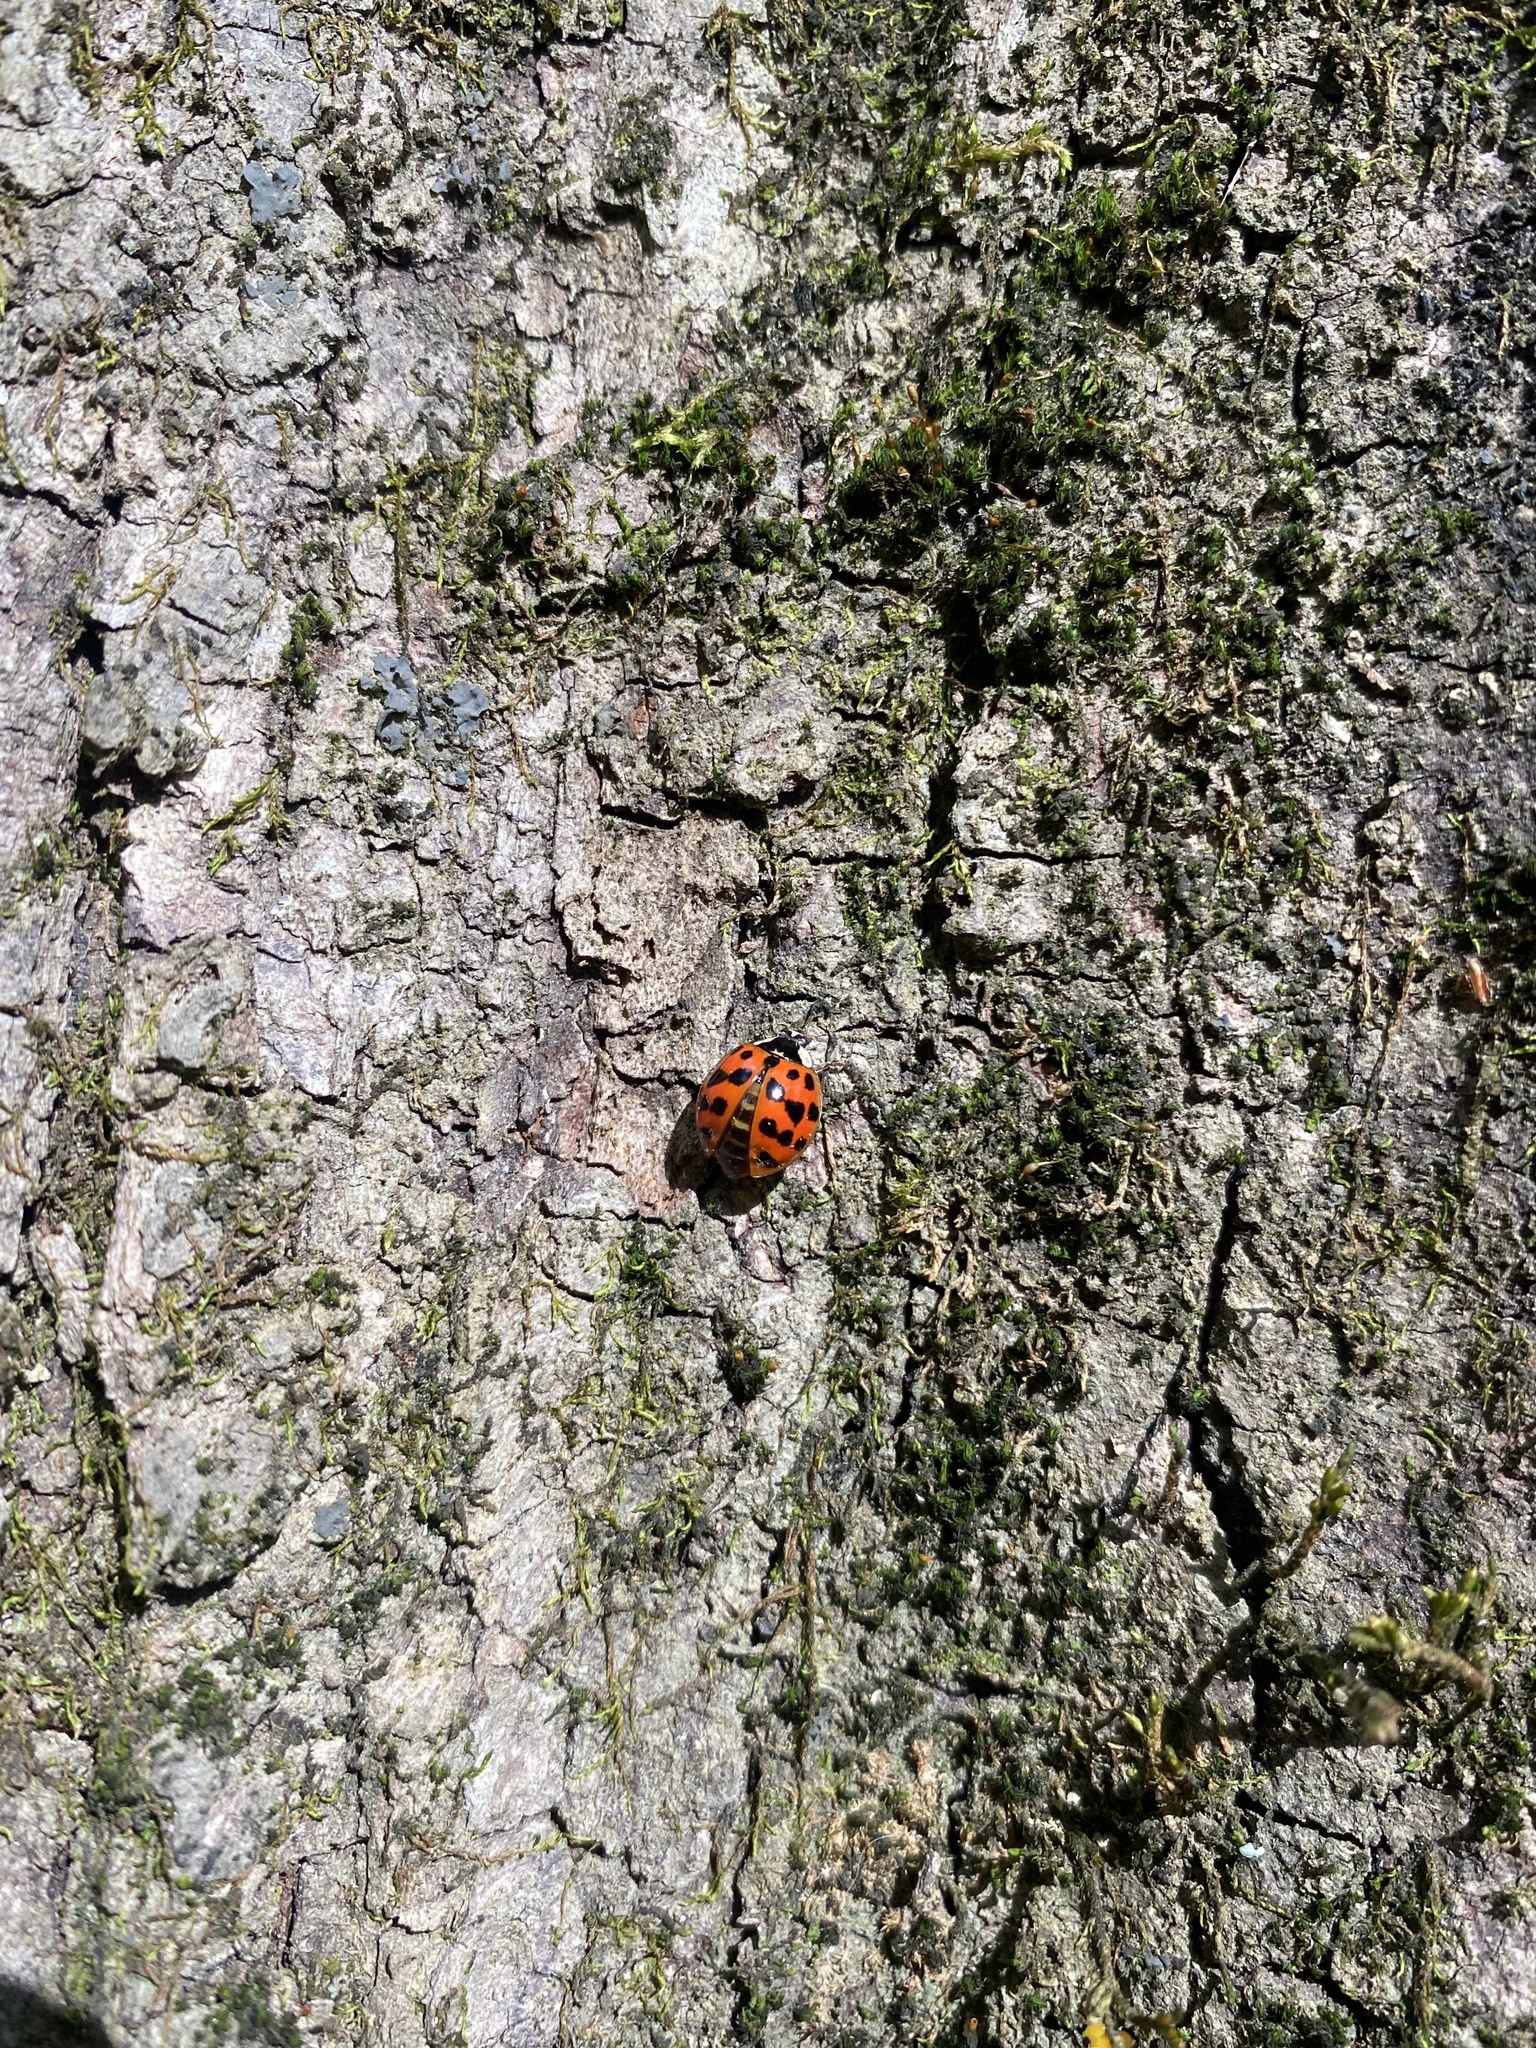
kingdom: Animalia
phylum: Arthropoda
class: Insecta
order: Coleoptera
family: Coccinellidae
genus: Harmonia
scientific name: Harmonia axyridis
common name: Harlequin ladybird
